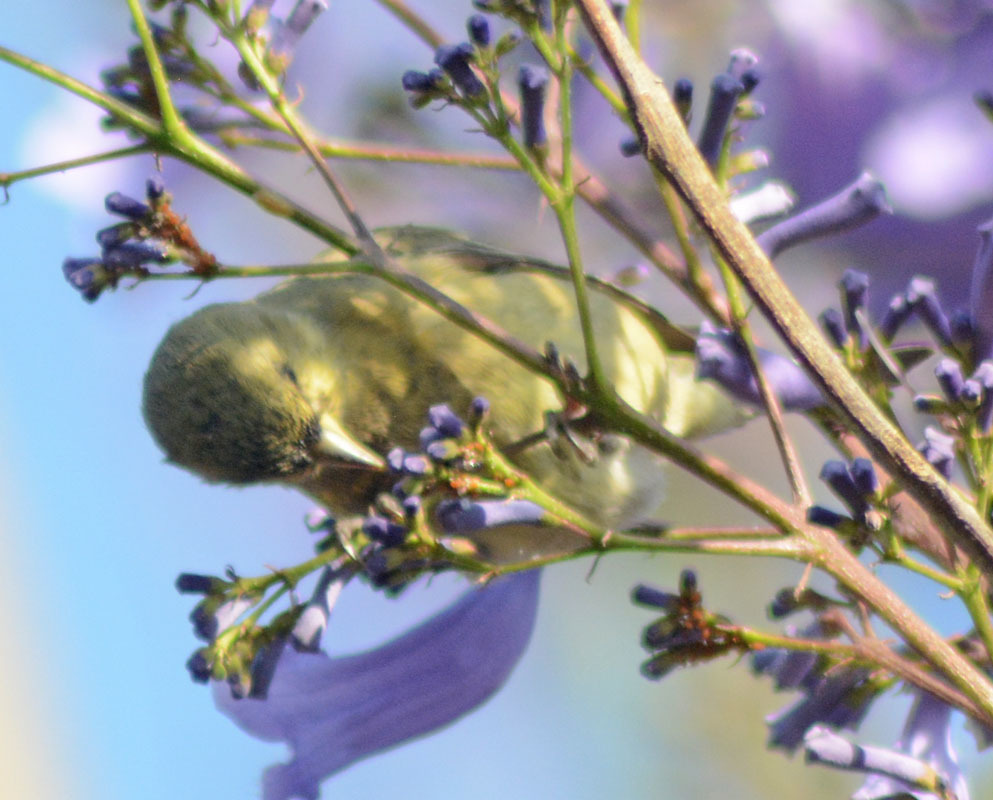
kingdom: Animalia
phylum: Chordata
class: Aves
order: Passeriformes
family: Fringillidae
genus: Spinus
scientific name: Spinus psaltria
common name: Lesser goldfinch
